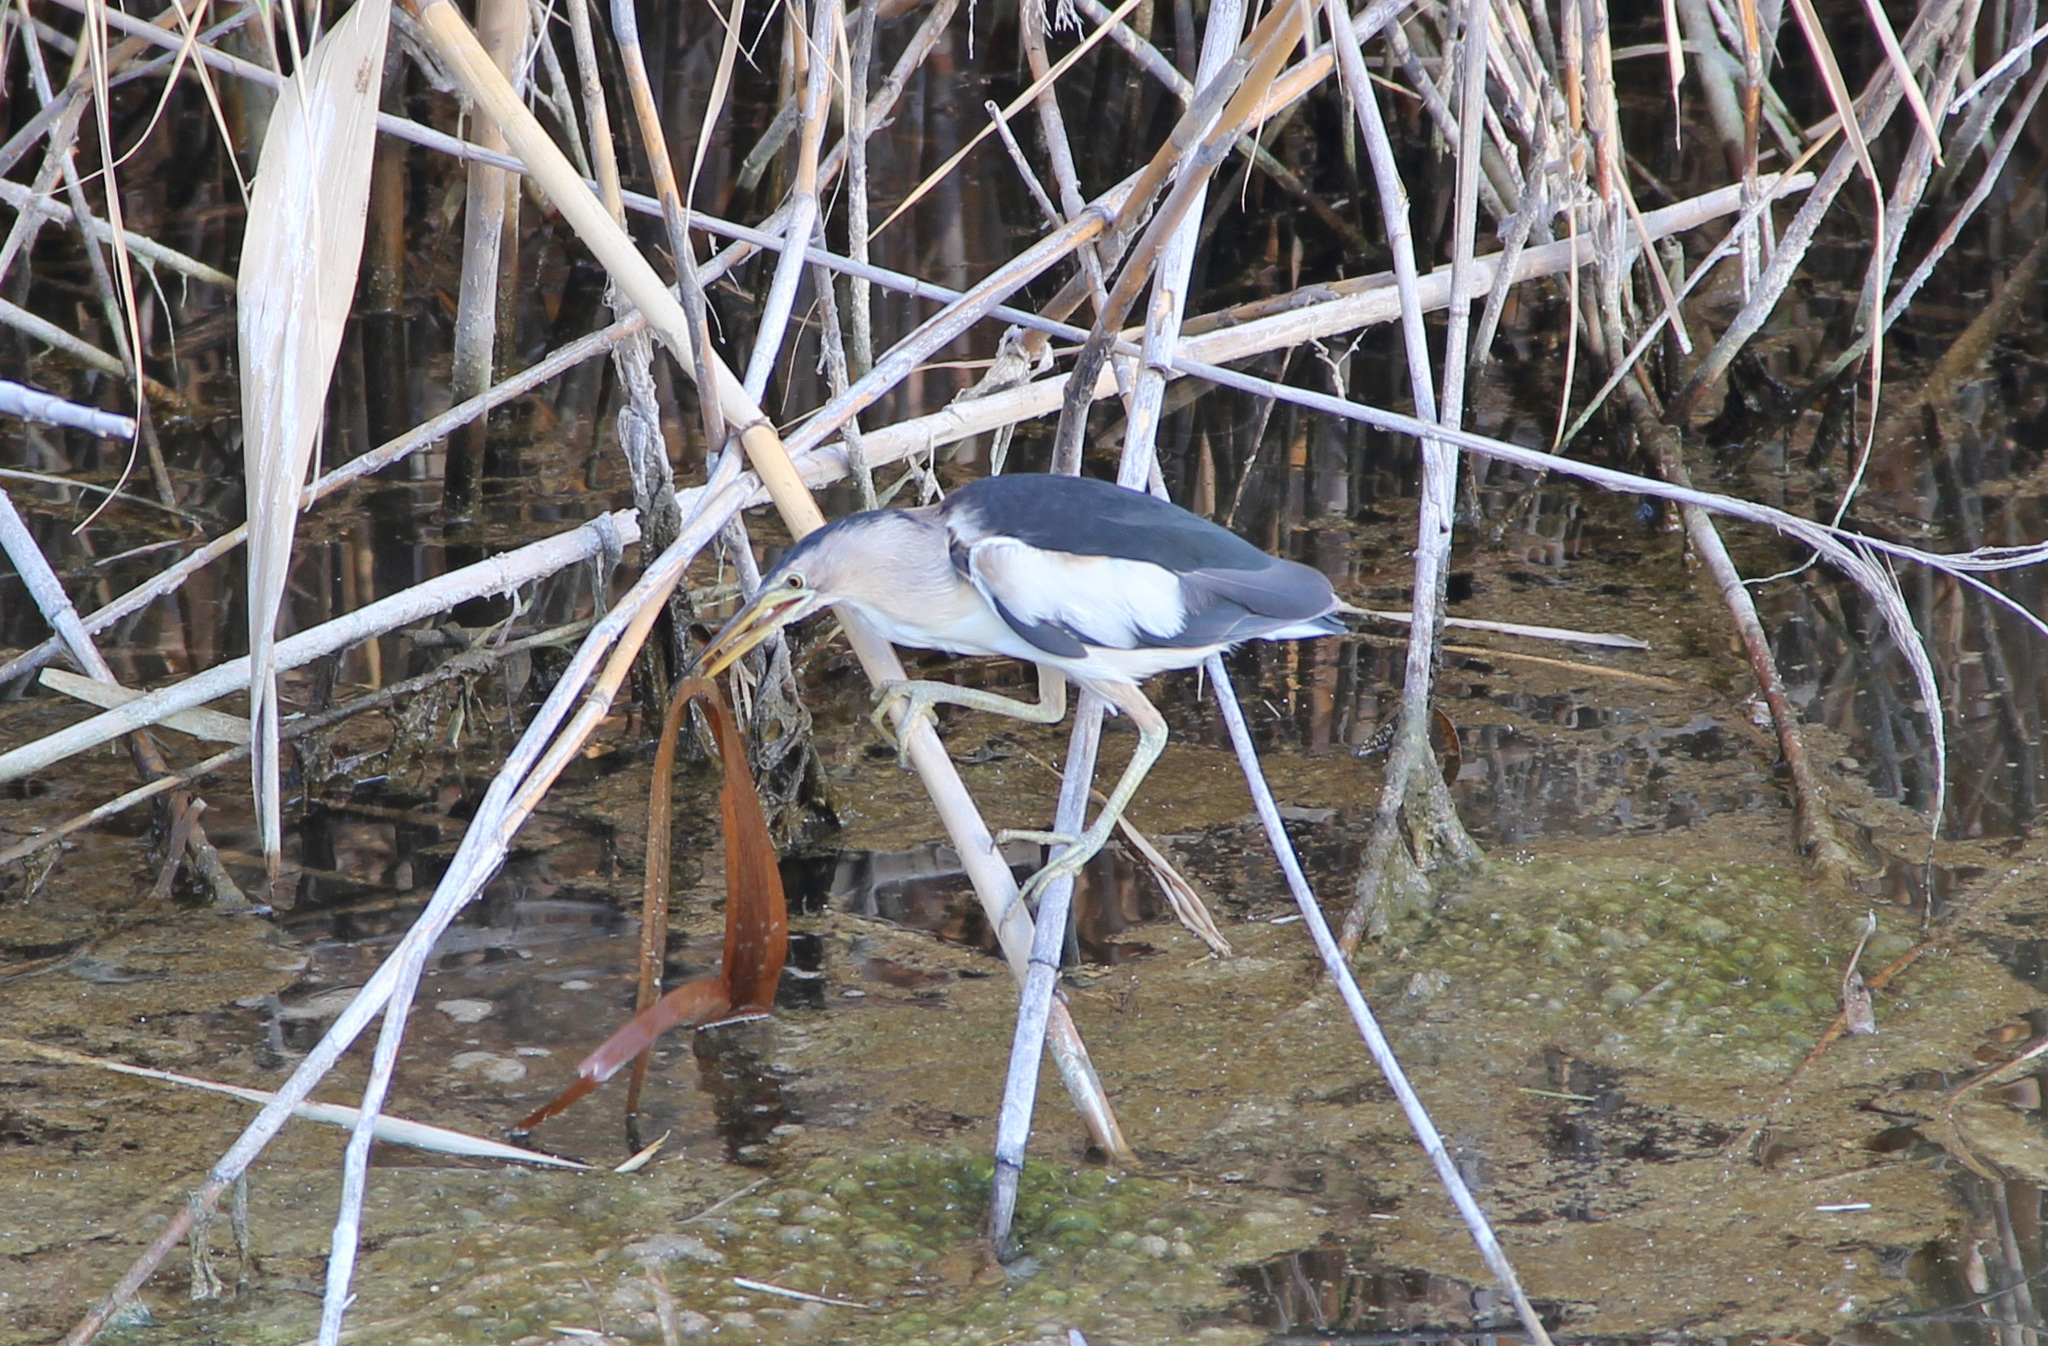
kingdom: Animalia
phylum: Chordata
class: Aves
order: Pelecaniformes
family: Ardeidae
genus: Ixobrychus
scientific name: Ixobrychus minutus
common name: Little bittern
